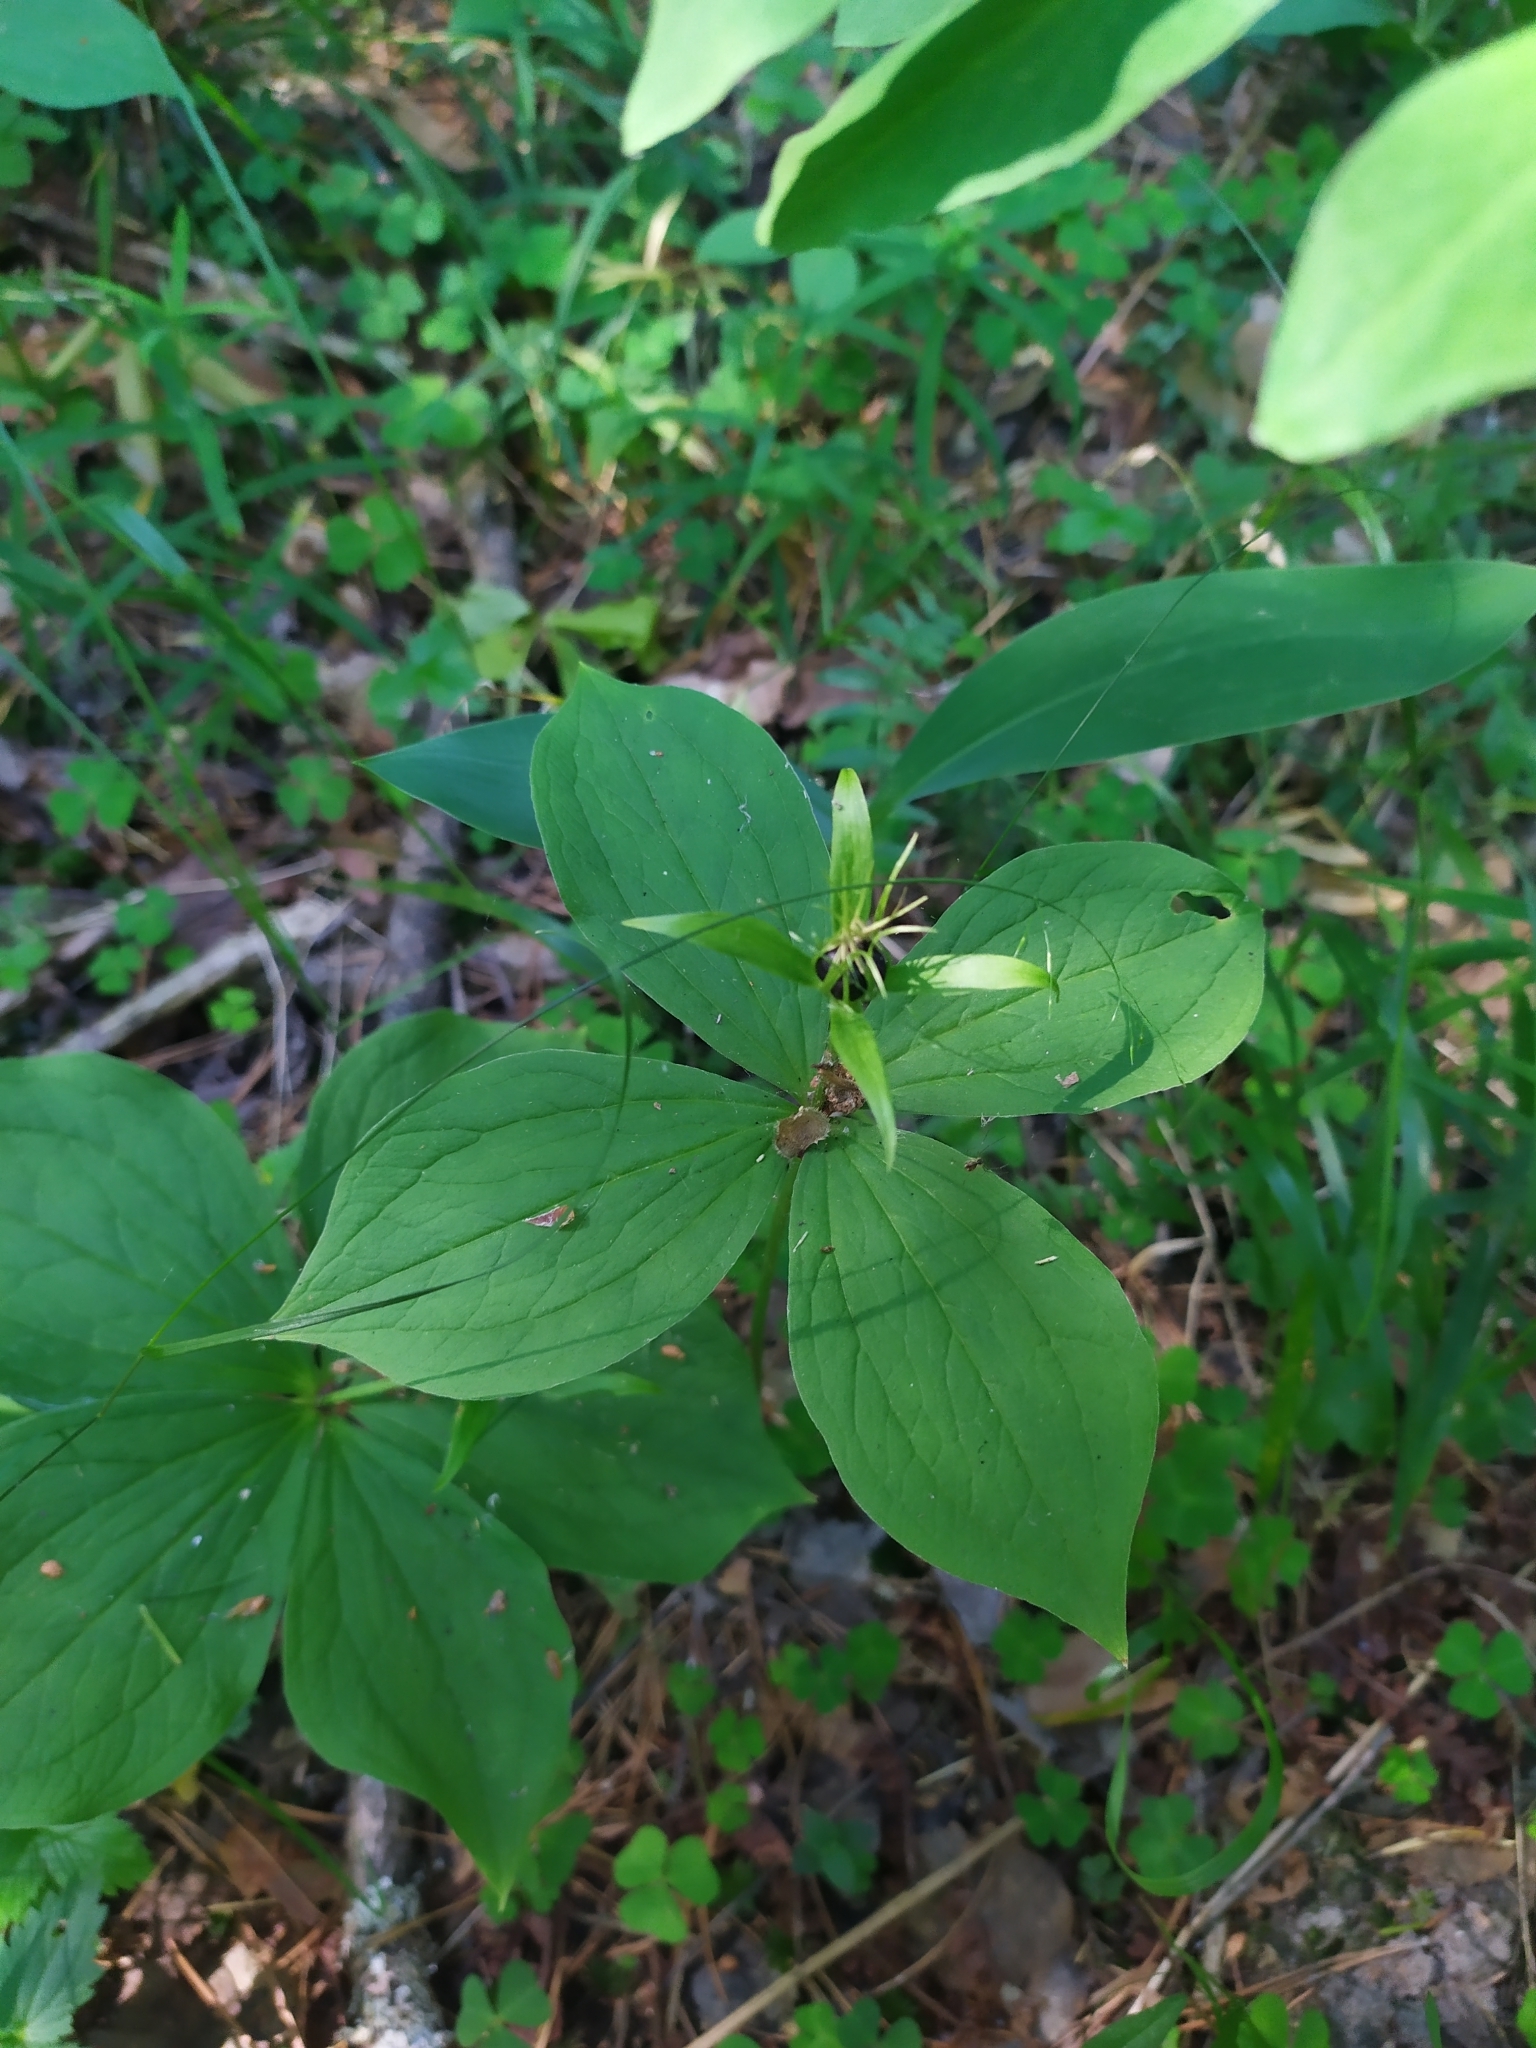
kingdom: Plantae
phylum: Tracheophyta
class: Liliopsida
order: Liliales
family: Melanthiaceae
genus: Paris
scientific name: Paris quadrifolia
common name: Herb-paris
